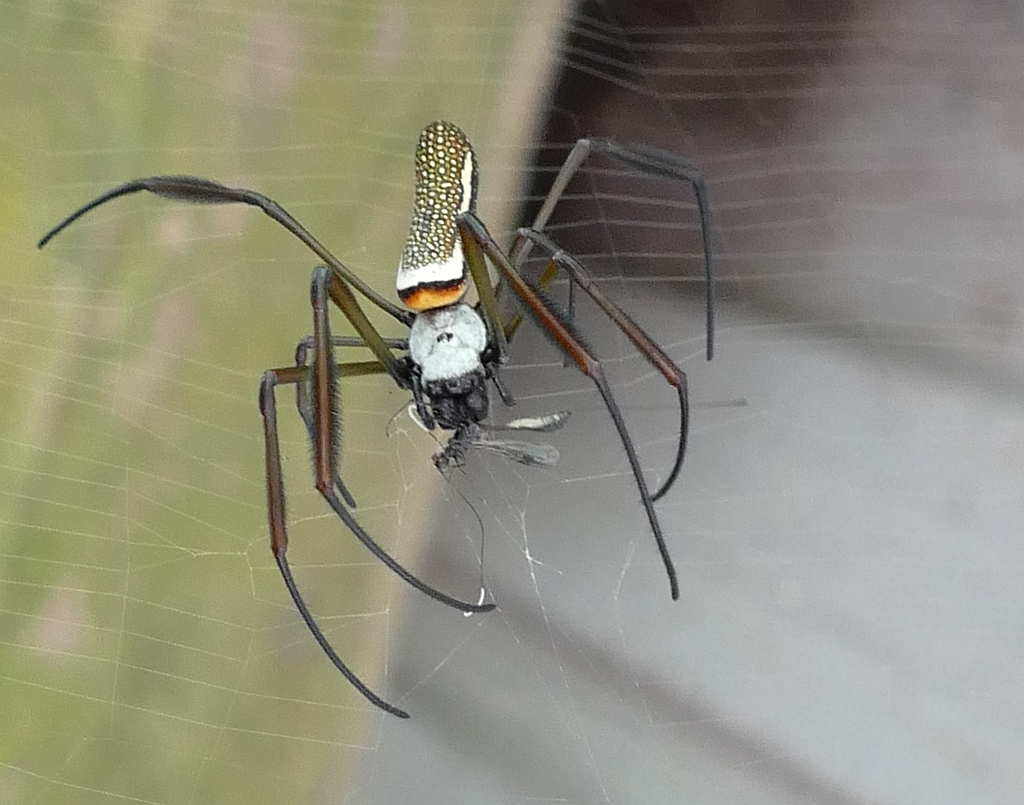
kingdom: Animalia
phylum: Arthropoda
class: Arachnida
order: Araneae
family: Araneidae
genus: Trichonephila
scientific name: Trichonephila clavipes
